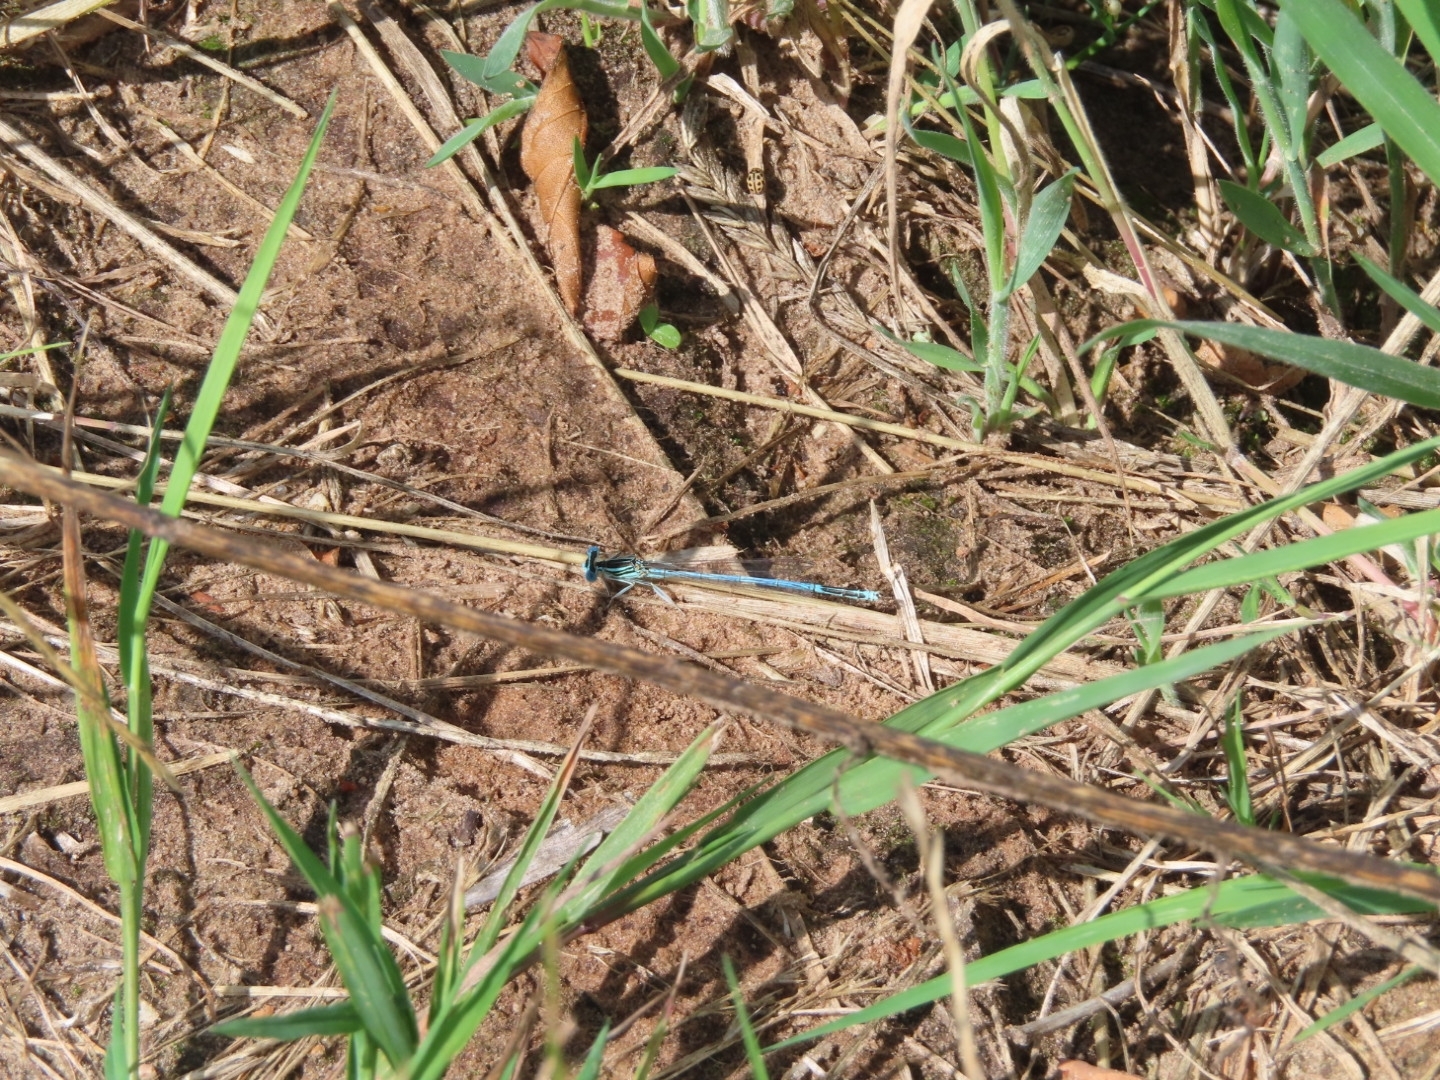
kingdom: Animalia
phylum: Arthropoda
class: Insecta
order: Odonata
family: Platycnemididae
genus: Platycnemis
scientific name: Platycnemis pennipes
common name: White-legged damselfly
